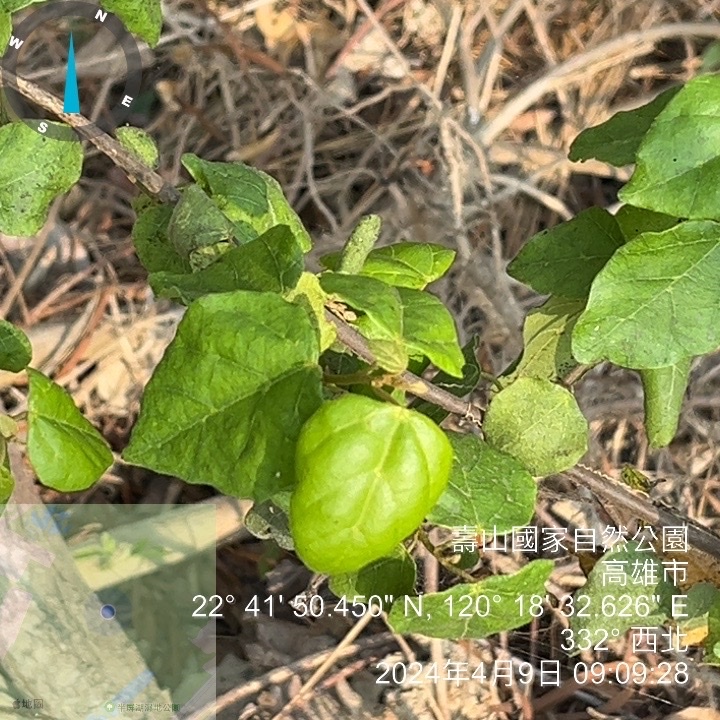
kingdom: Plantae
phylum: Tracheophyta
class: Magnoliopsida
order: Malpighiales
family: Euphorbiaceae
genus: Mallotus
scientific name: Mallotus repandus
